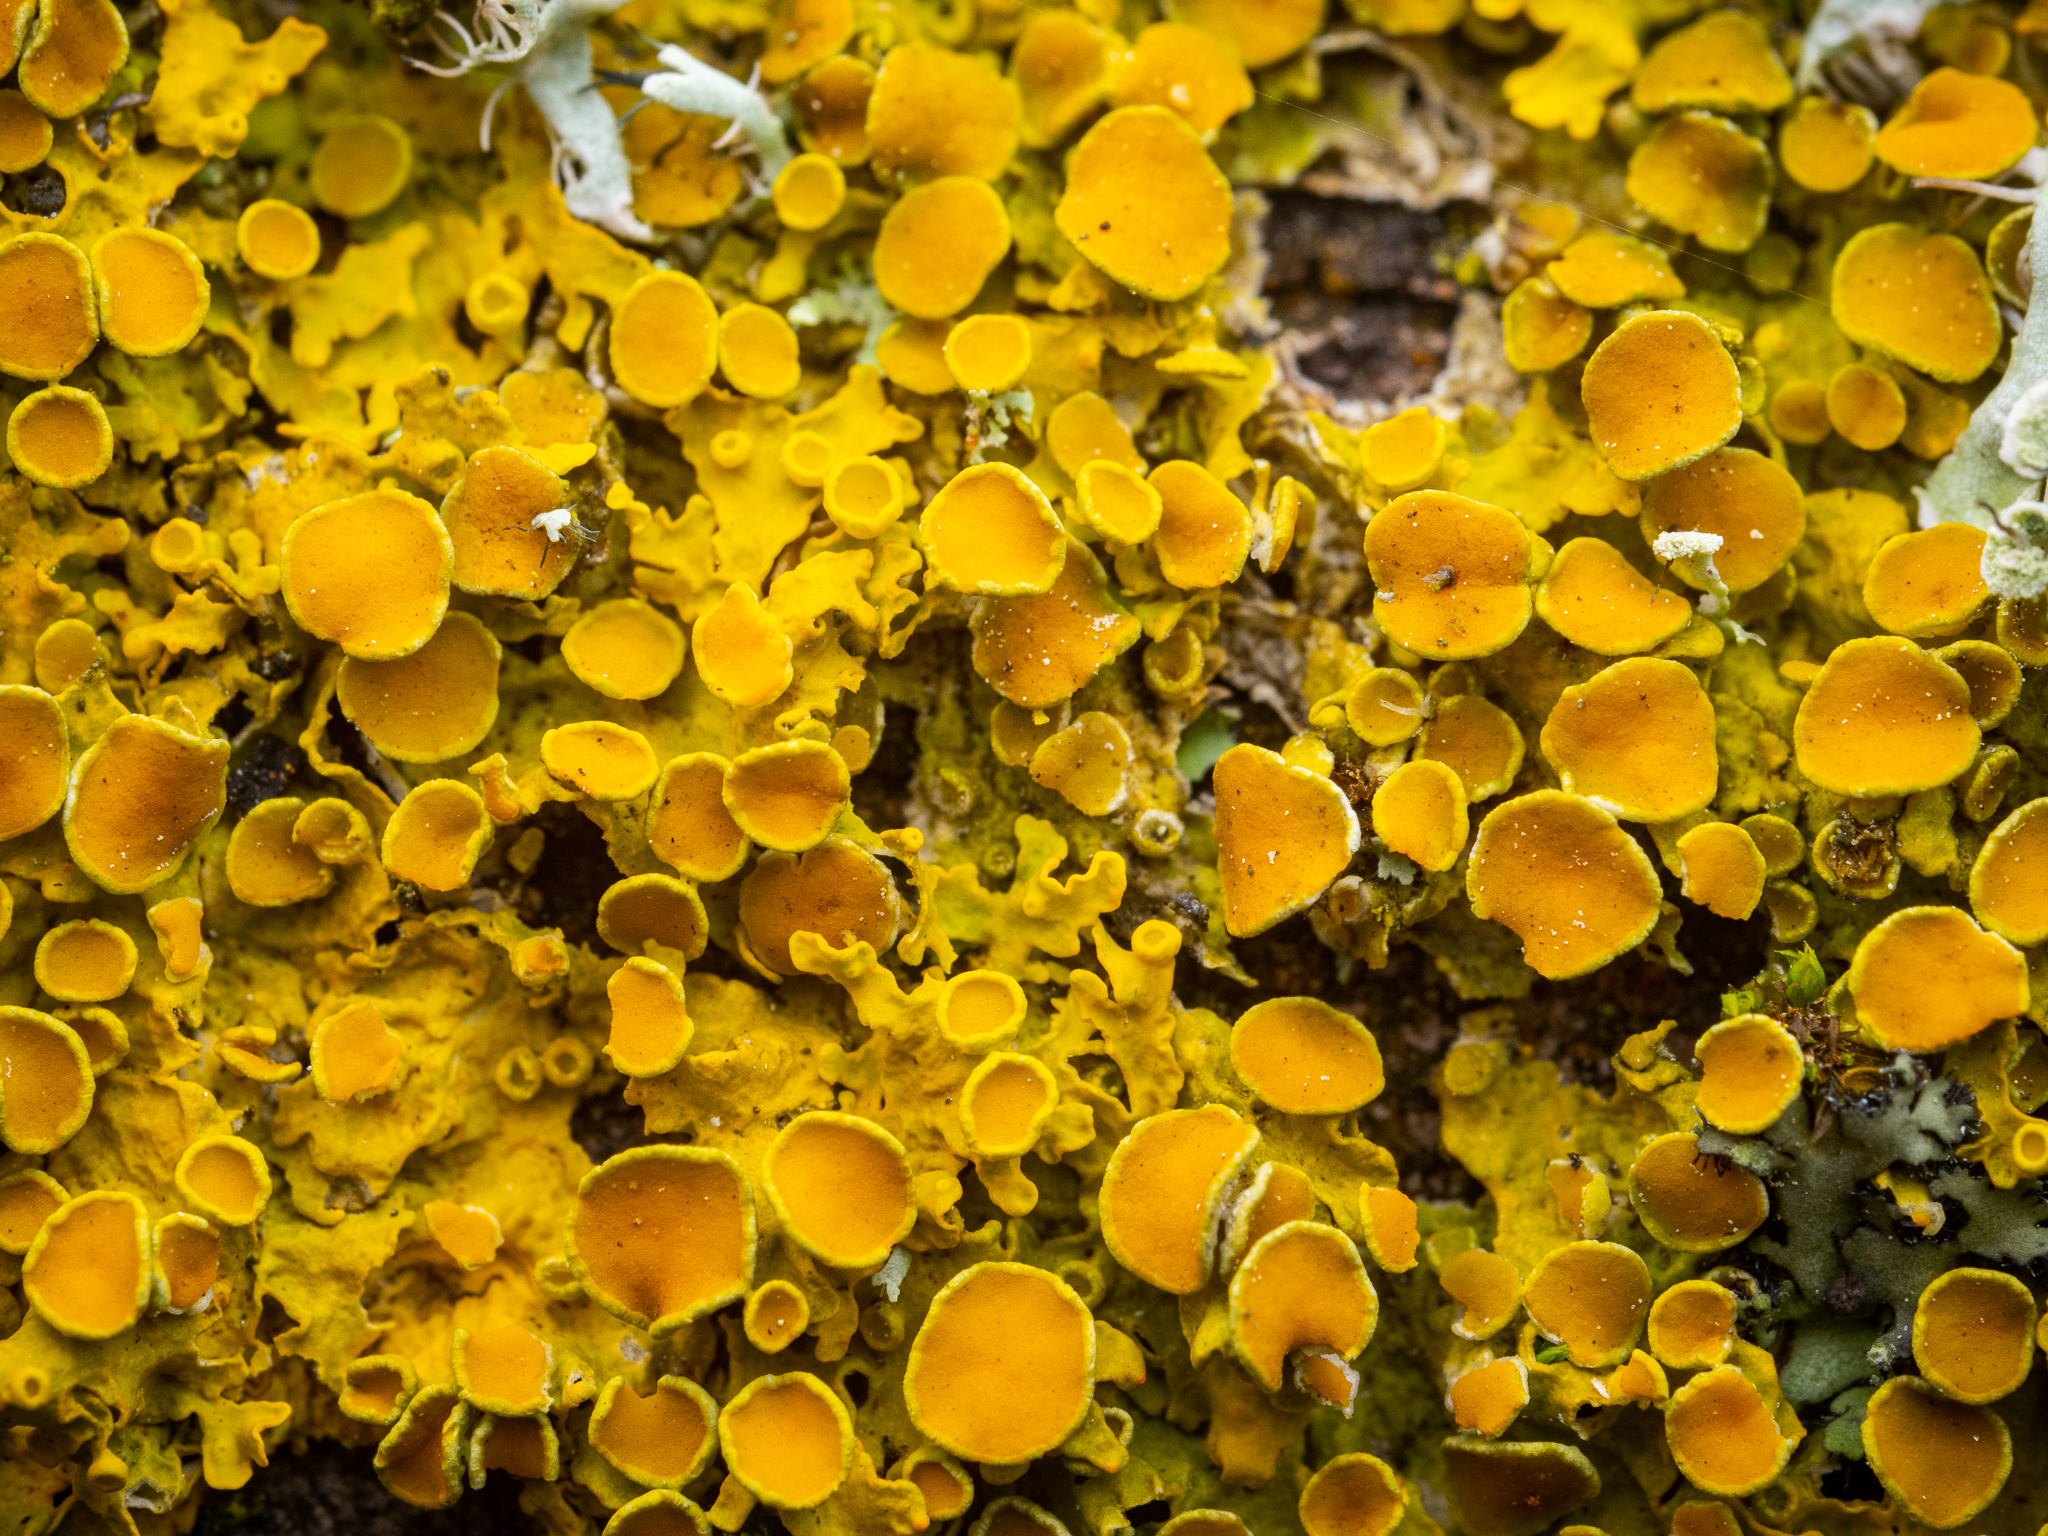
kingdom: Fungi
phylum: Ascomycota
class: Lecanoromycetes
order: Teloschistales
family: Teloschistaceae
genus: Xanthoria
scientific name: Xanthoria parietina
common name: Common orange lichen
